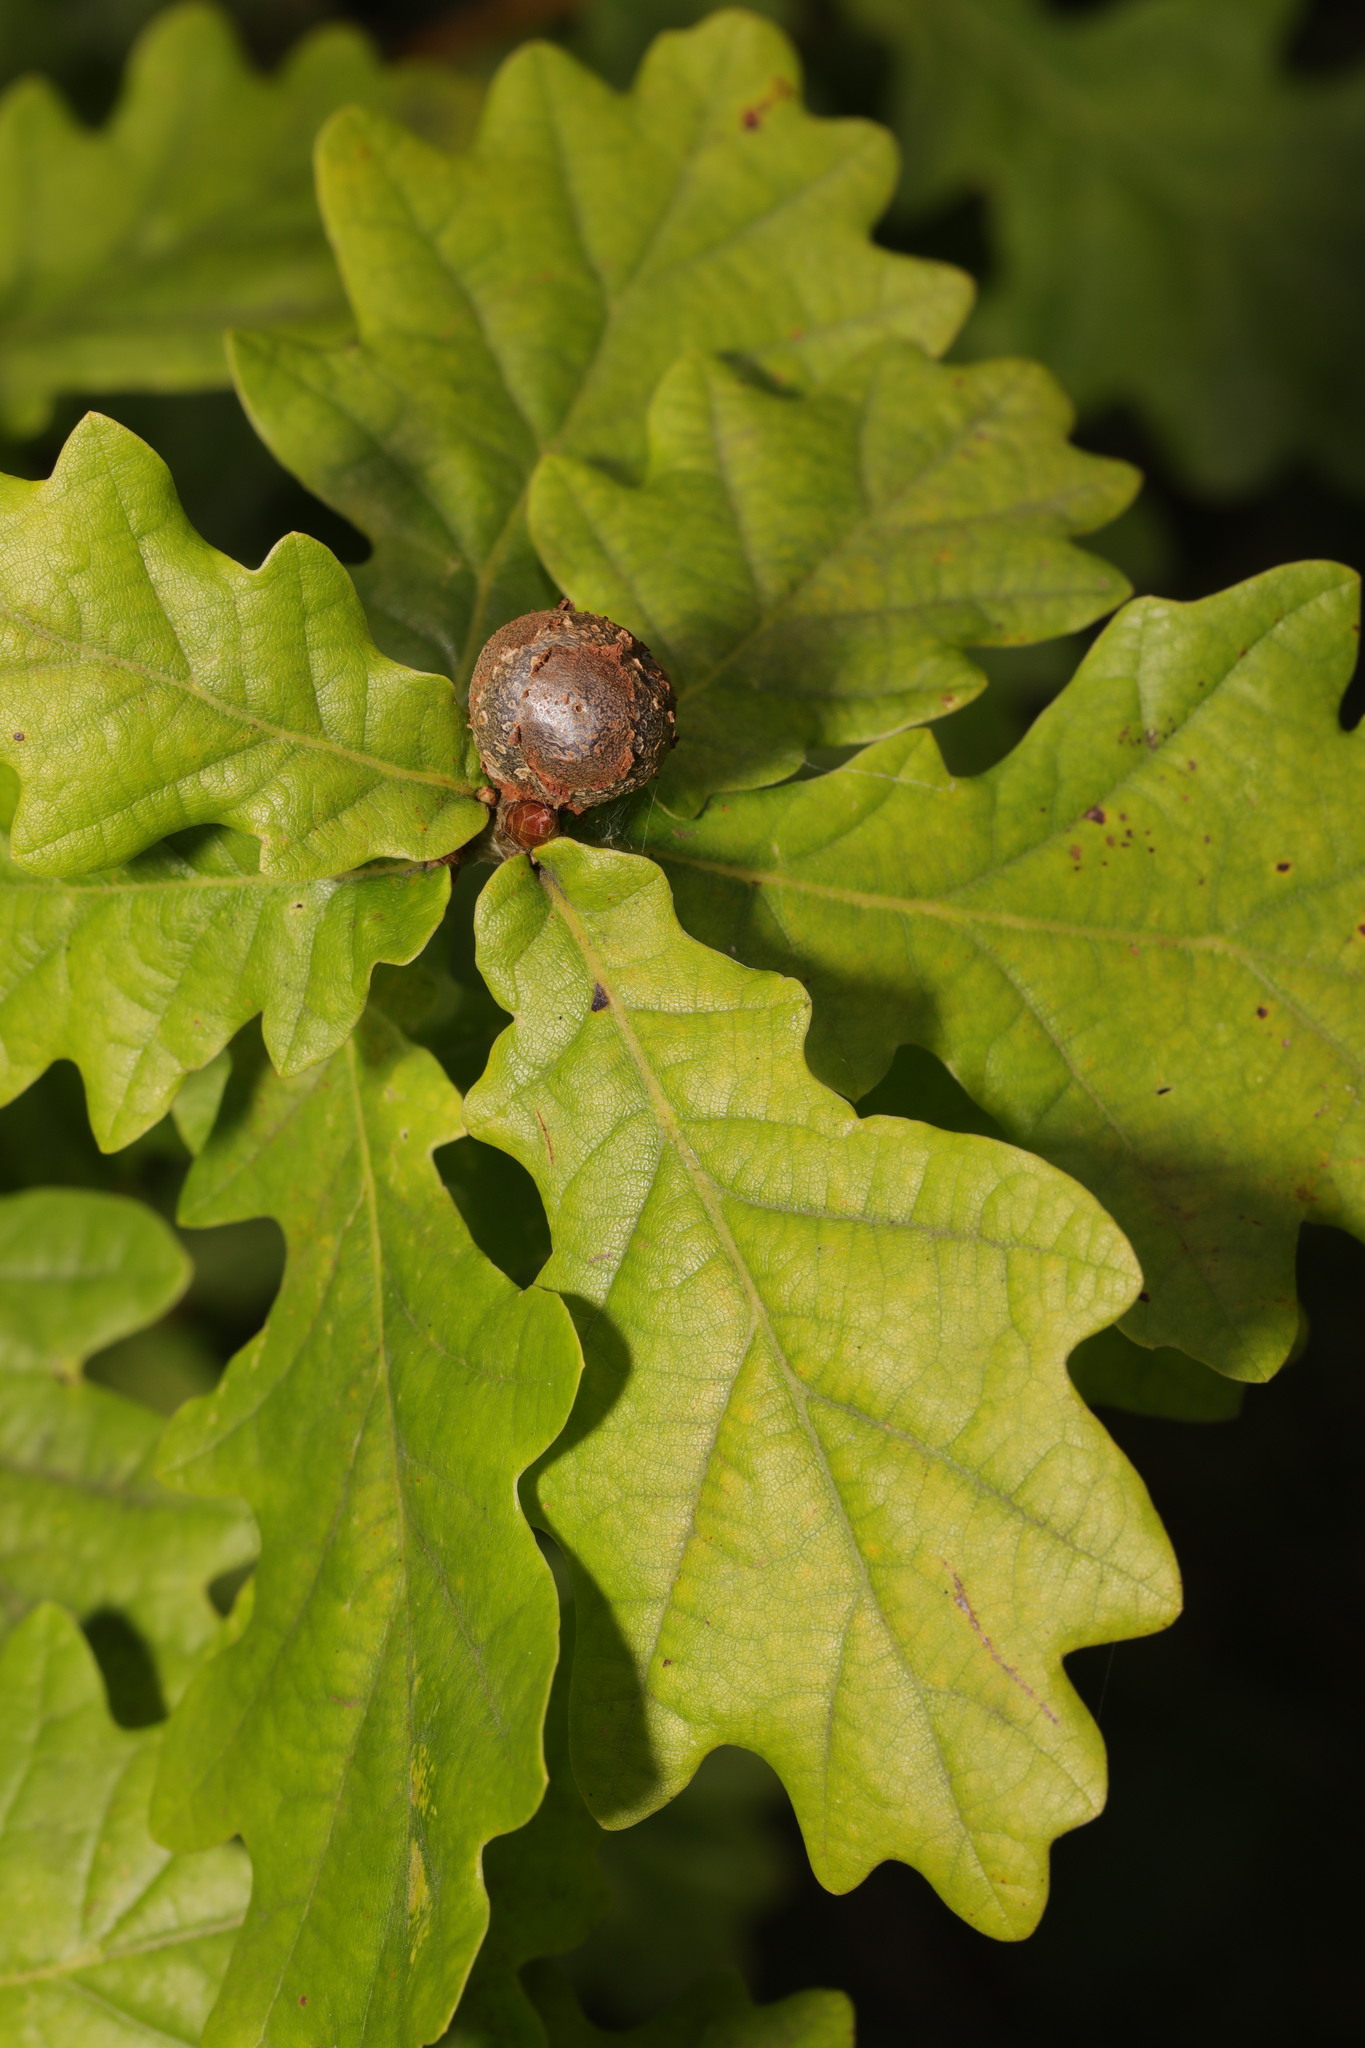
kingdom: Animalia
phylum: Arthropoda
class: Insecta
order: Hymenoptera
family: Cynipidae
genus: Andricus
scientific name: Andricus lignicolus
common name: Cola-nut gall
